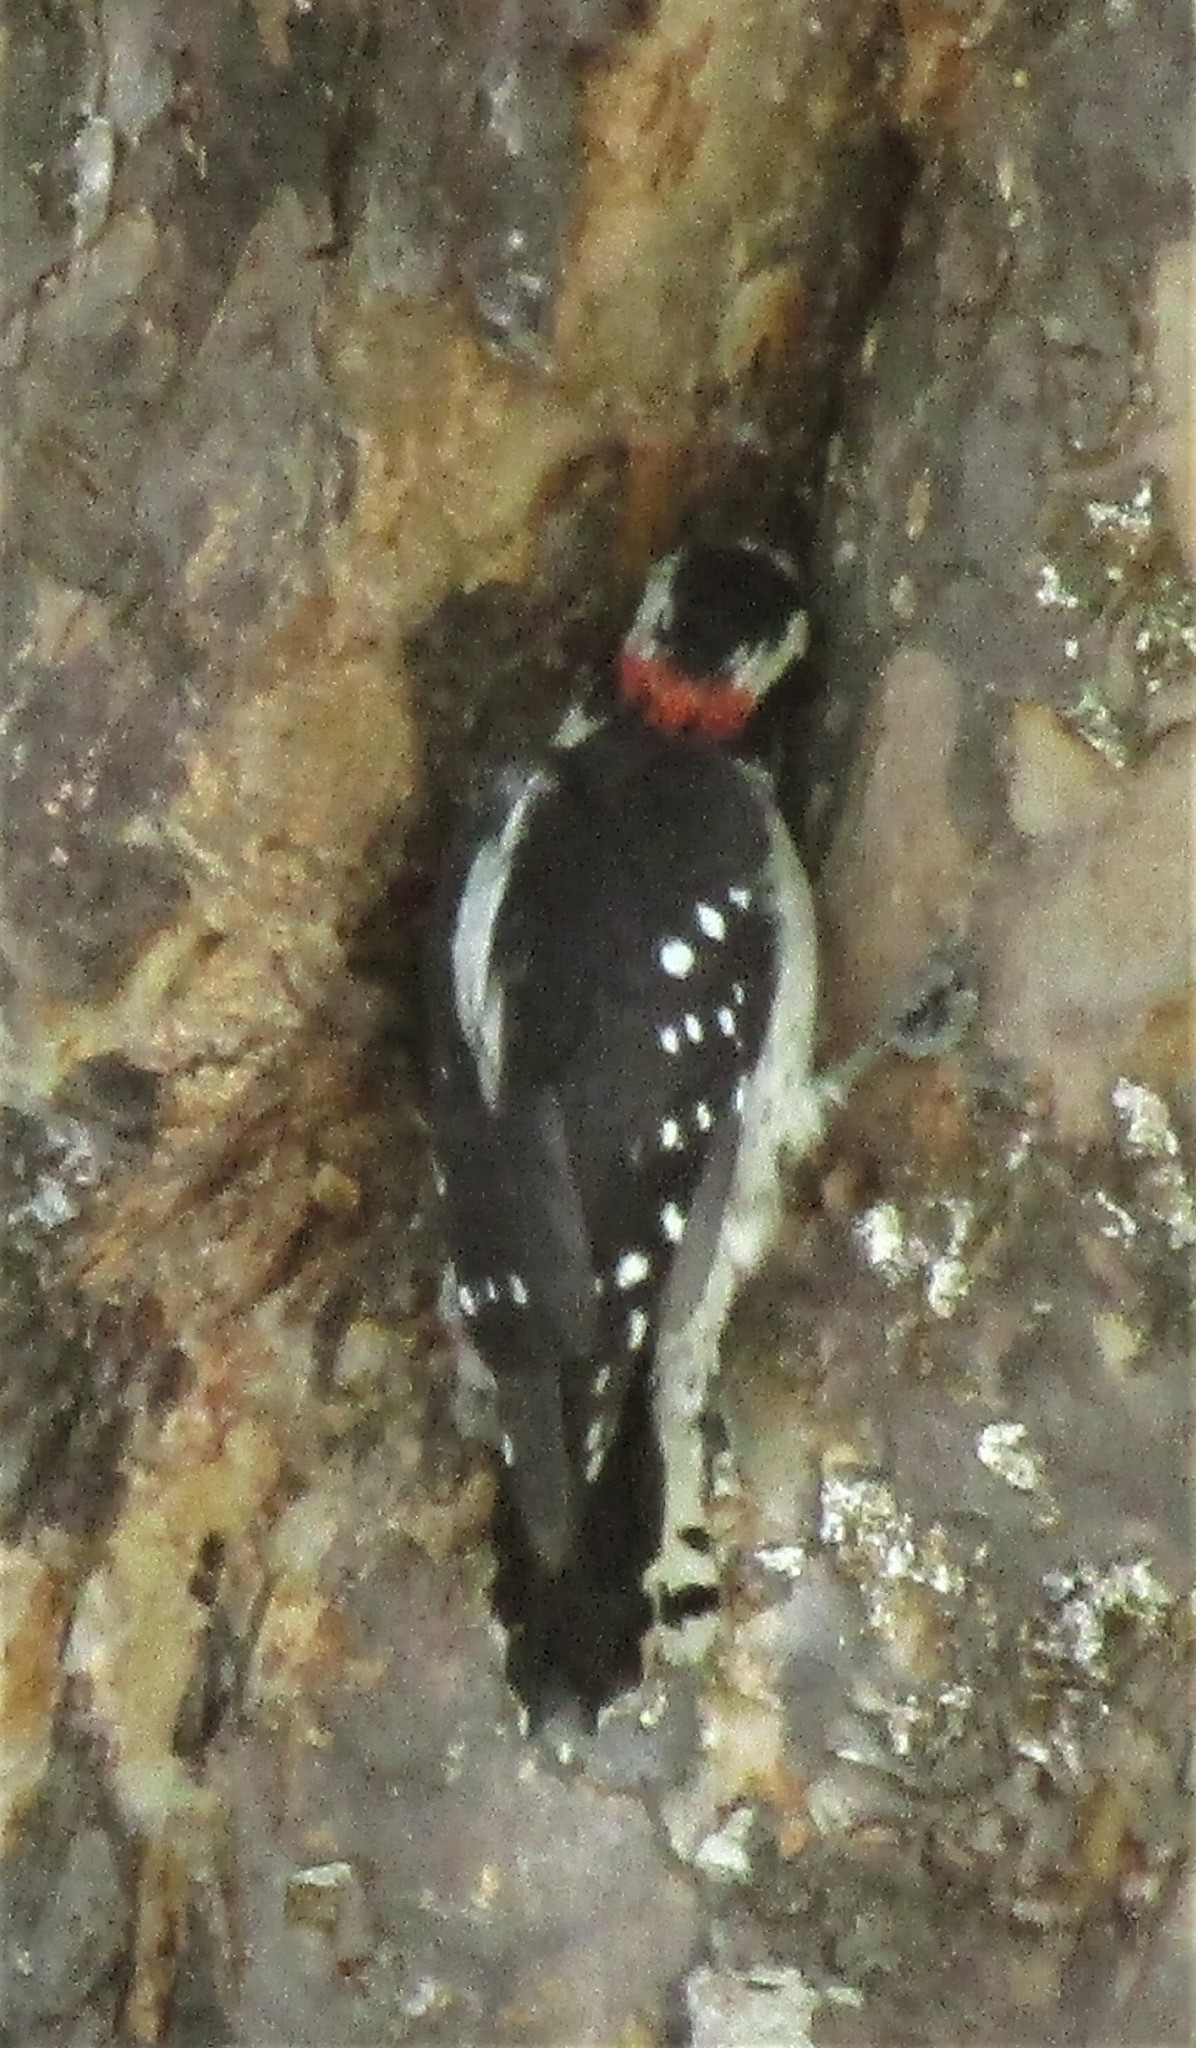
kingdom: Animalia
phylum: Chordata
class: Aves
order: Piciformes
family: Picidae
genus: Dryobates
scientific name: Dryobates pubescens
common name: Downy woodpecker
